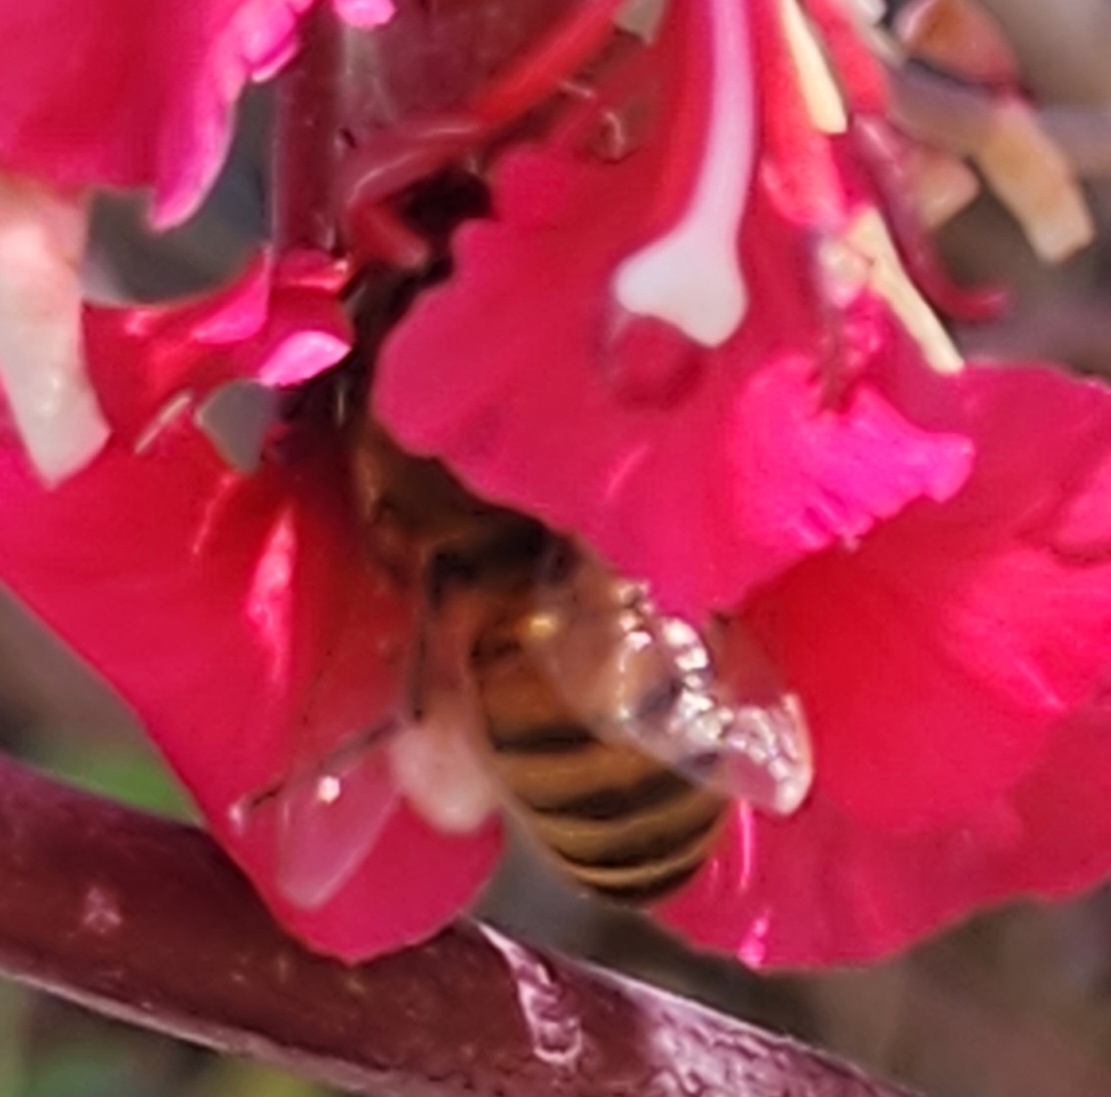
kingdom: Animalia
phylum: Arthropoda
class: Insecta
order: Hymenoptera
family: Apidae
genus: Apis
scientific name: Apis mellifera
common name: Honey bee
